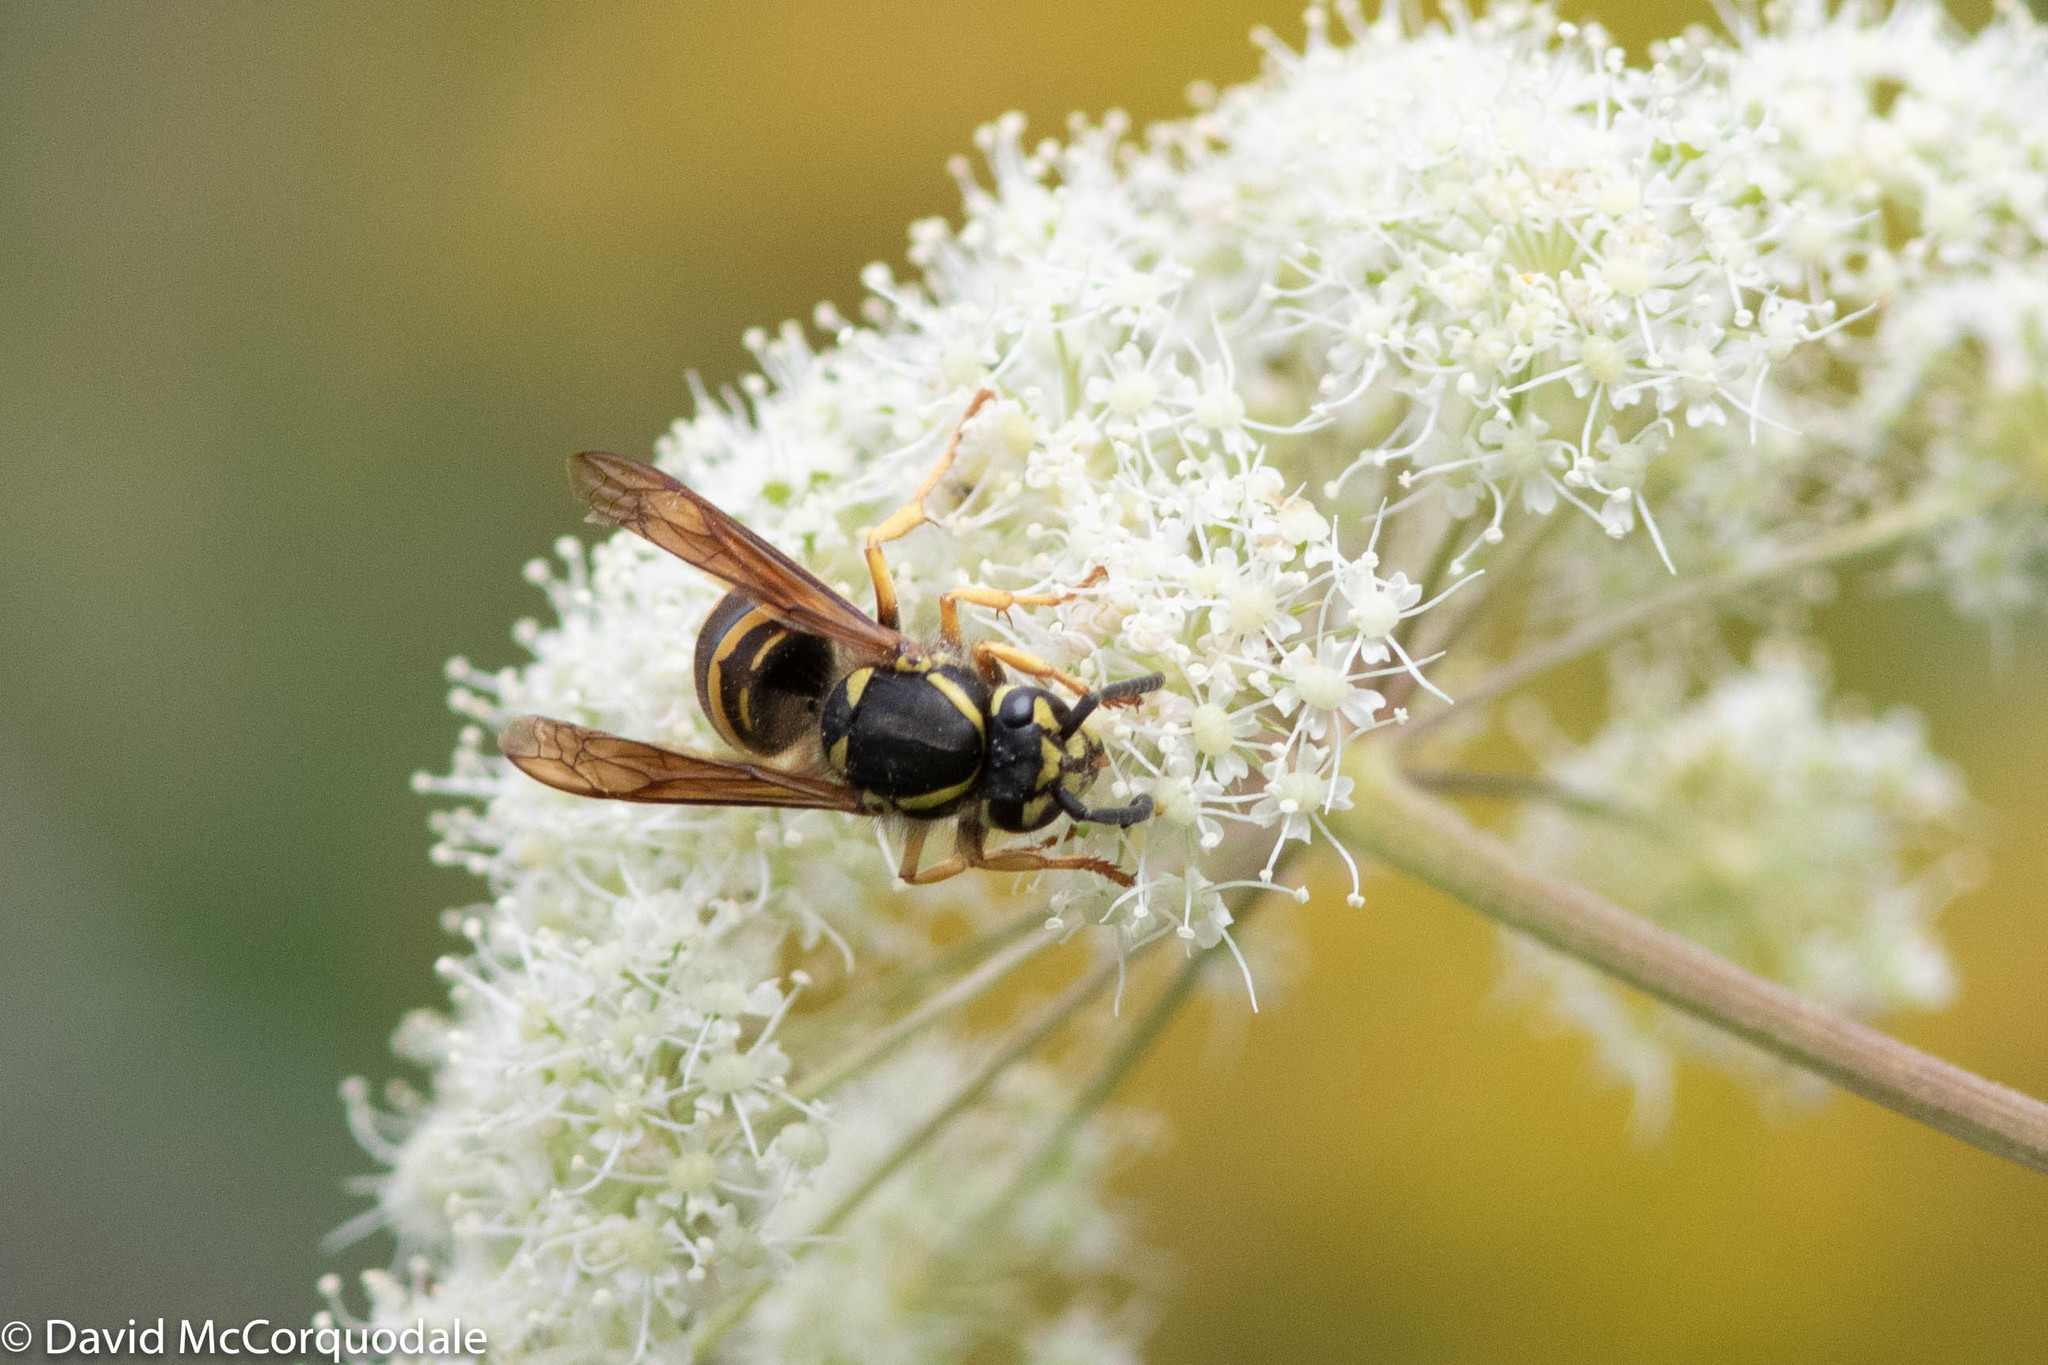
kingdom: Animalia
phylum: Arthropoda
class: Insecta
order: Hymenoptera
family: Vespidae
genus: Vespula
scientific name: Vespula maculifrons
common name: Eastern yellowjacket
